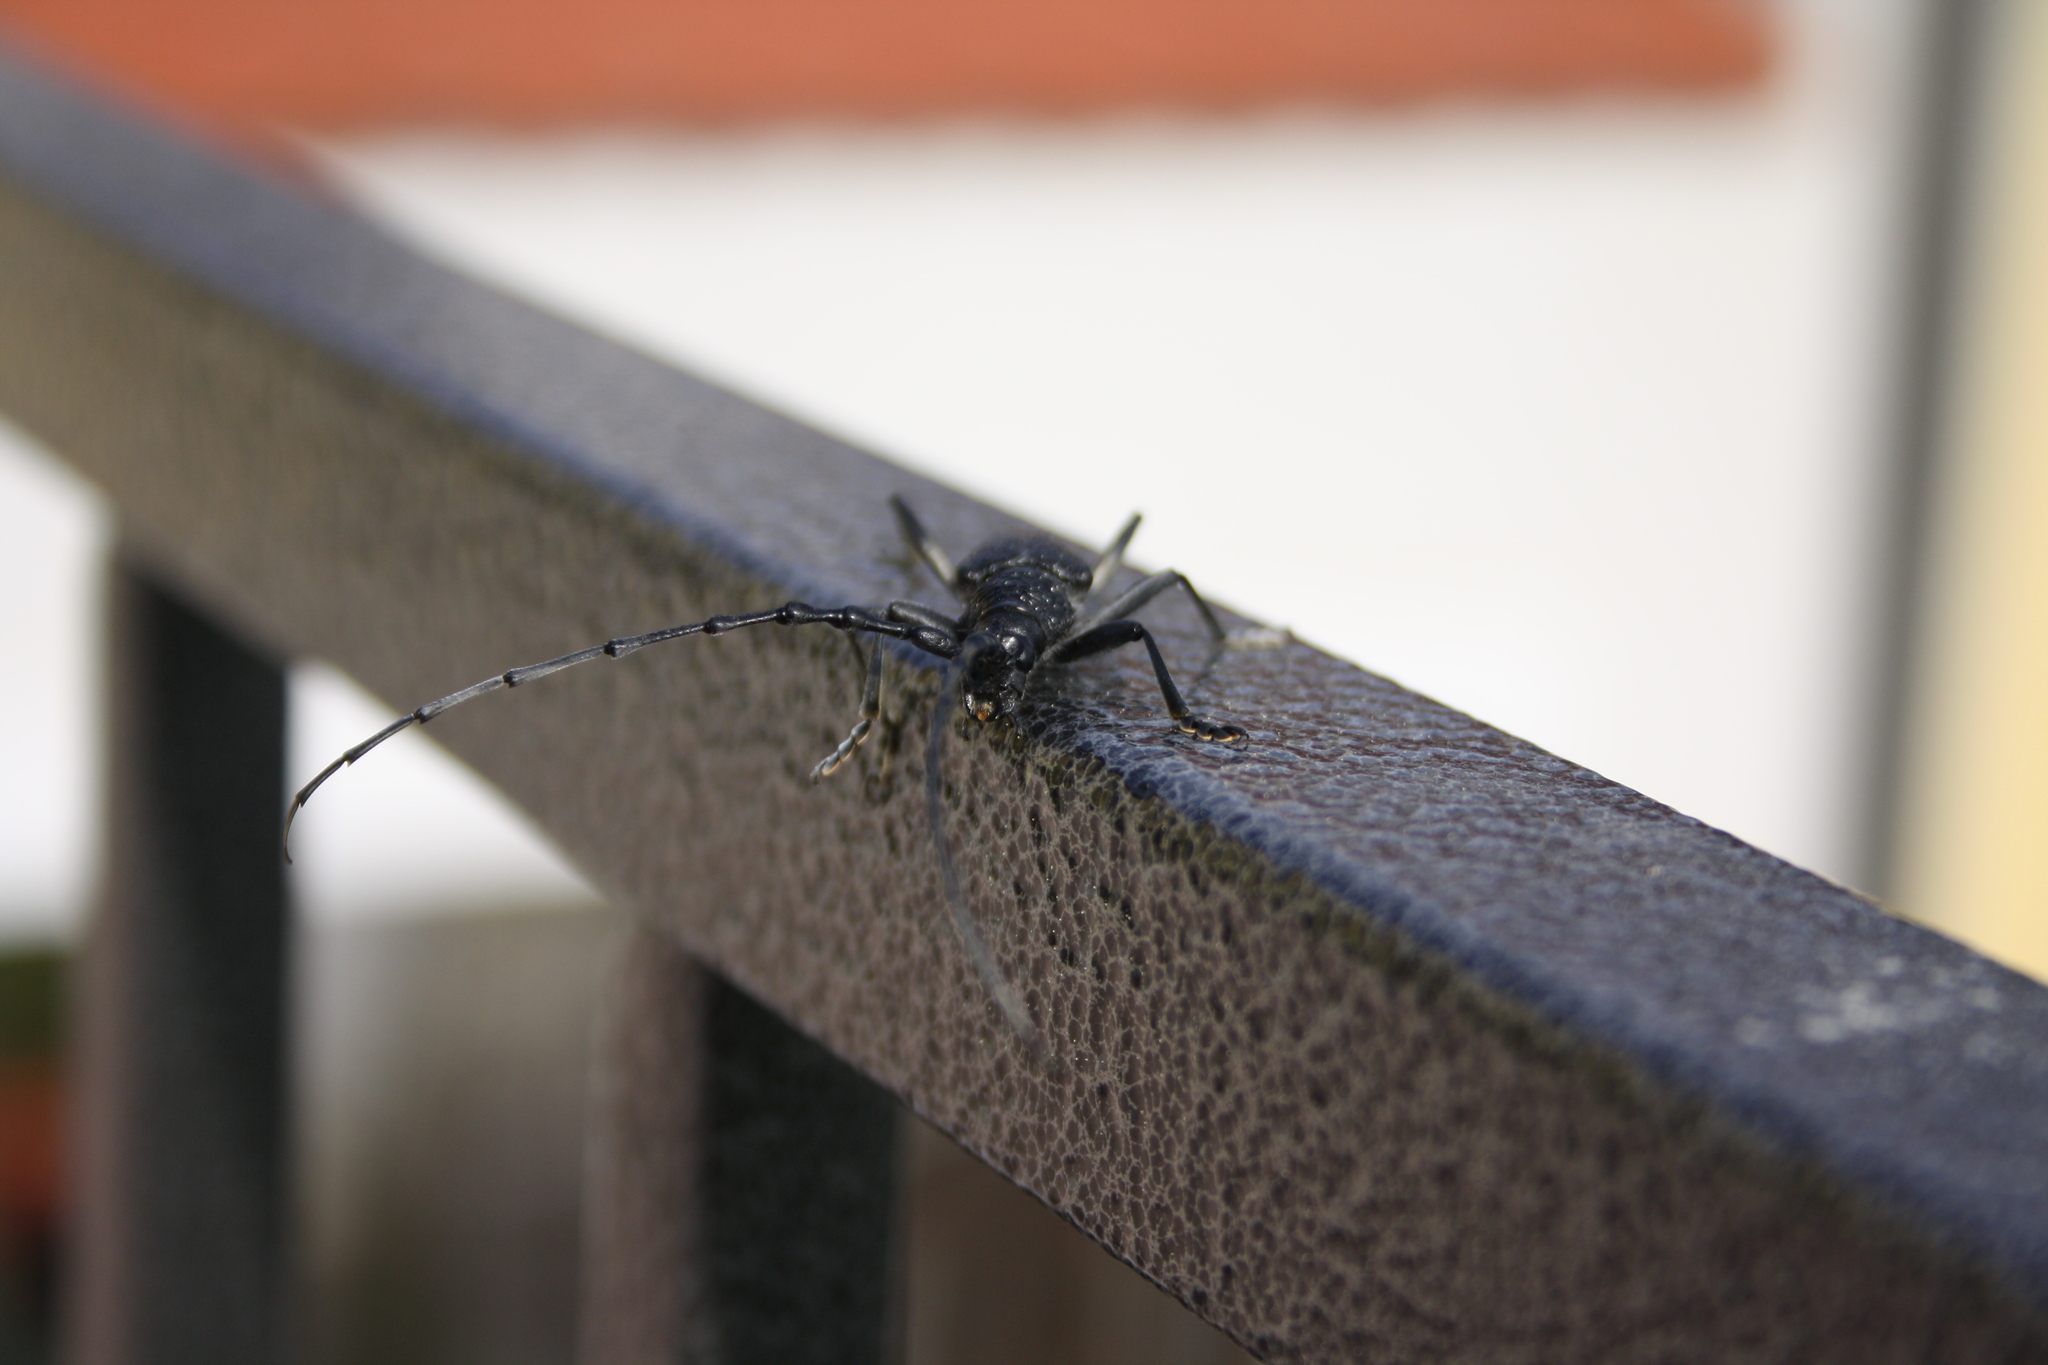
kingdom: Animalia
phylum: Arthropoda
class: Insecta
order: Coleoptera
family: Cerambycidae
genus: Cerambyx
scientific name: Cerambyx scopolii
